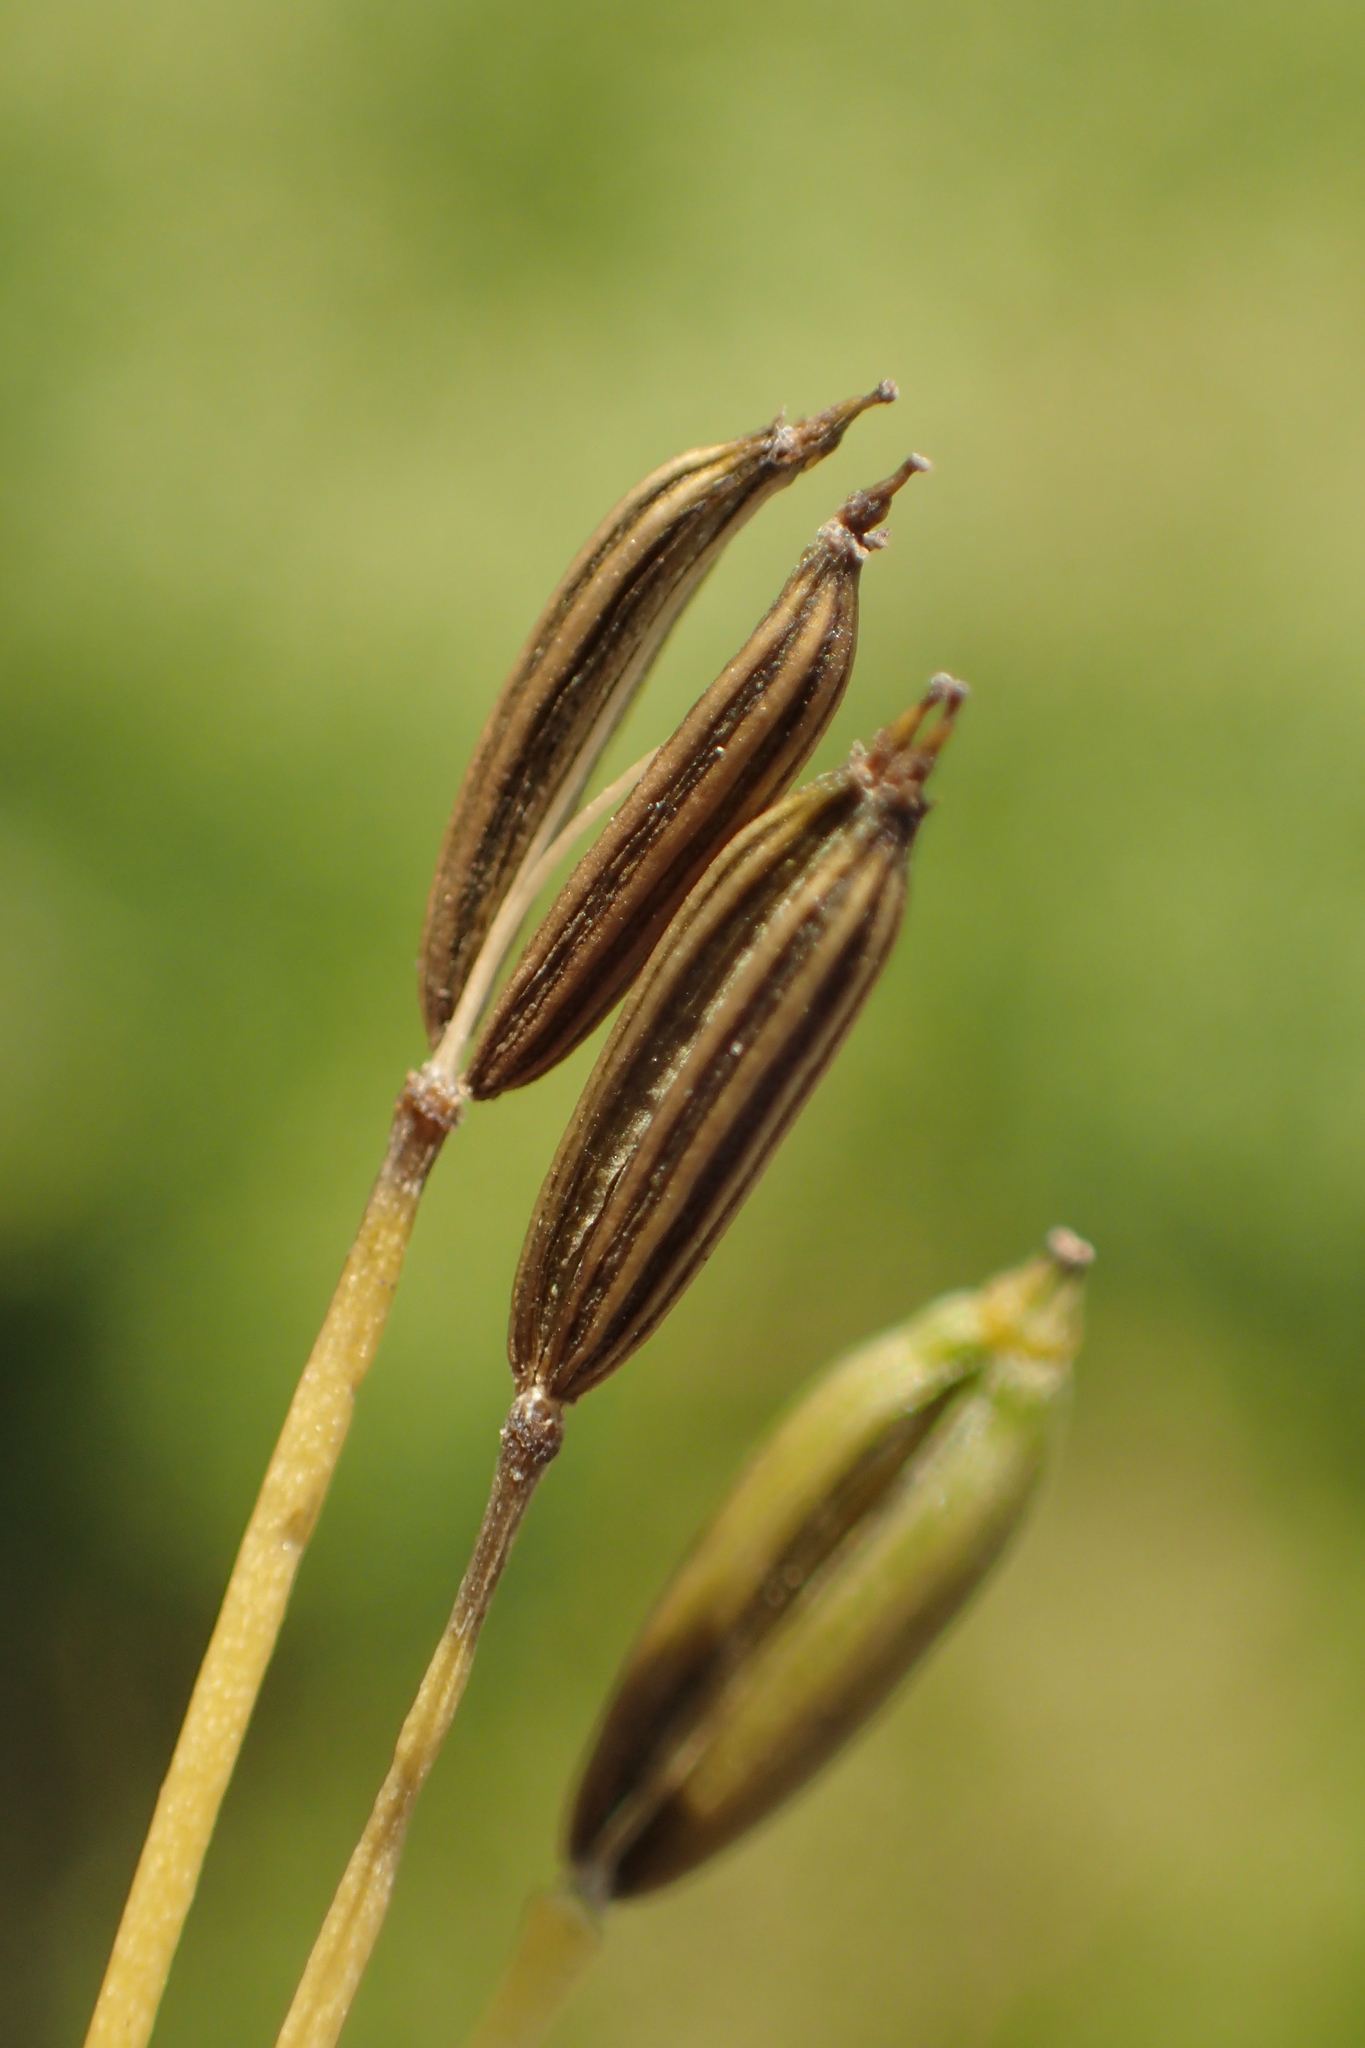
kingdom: Plantae
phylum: Tracheophyta
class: Magnoliopsida
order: Apiales
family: Apiaceae
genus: Cryptotaenia
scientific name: Cryptotaenia japonica
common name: Japanese cryptotaenia
